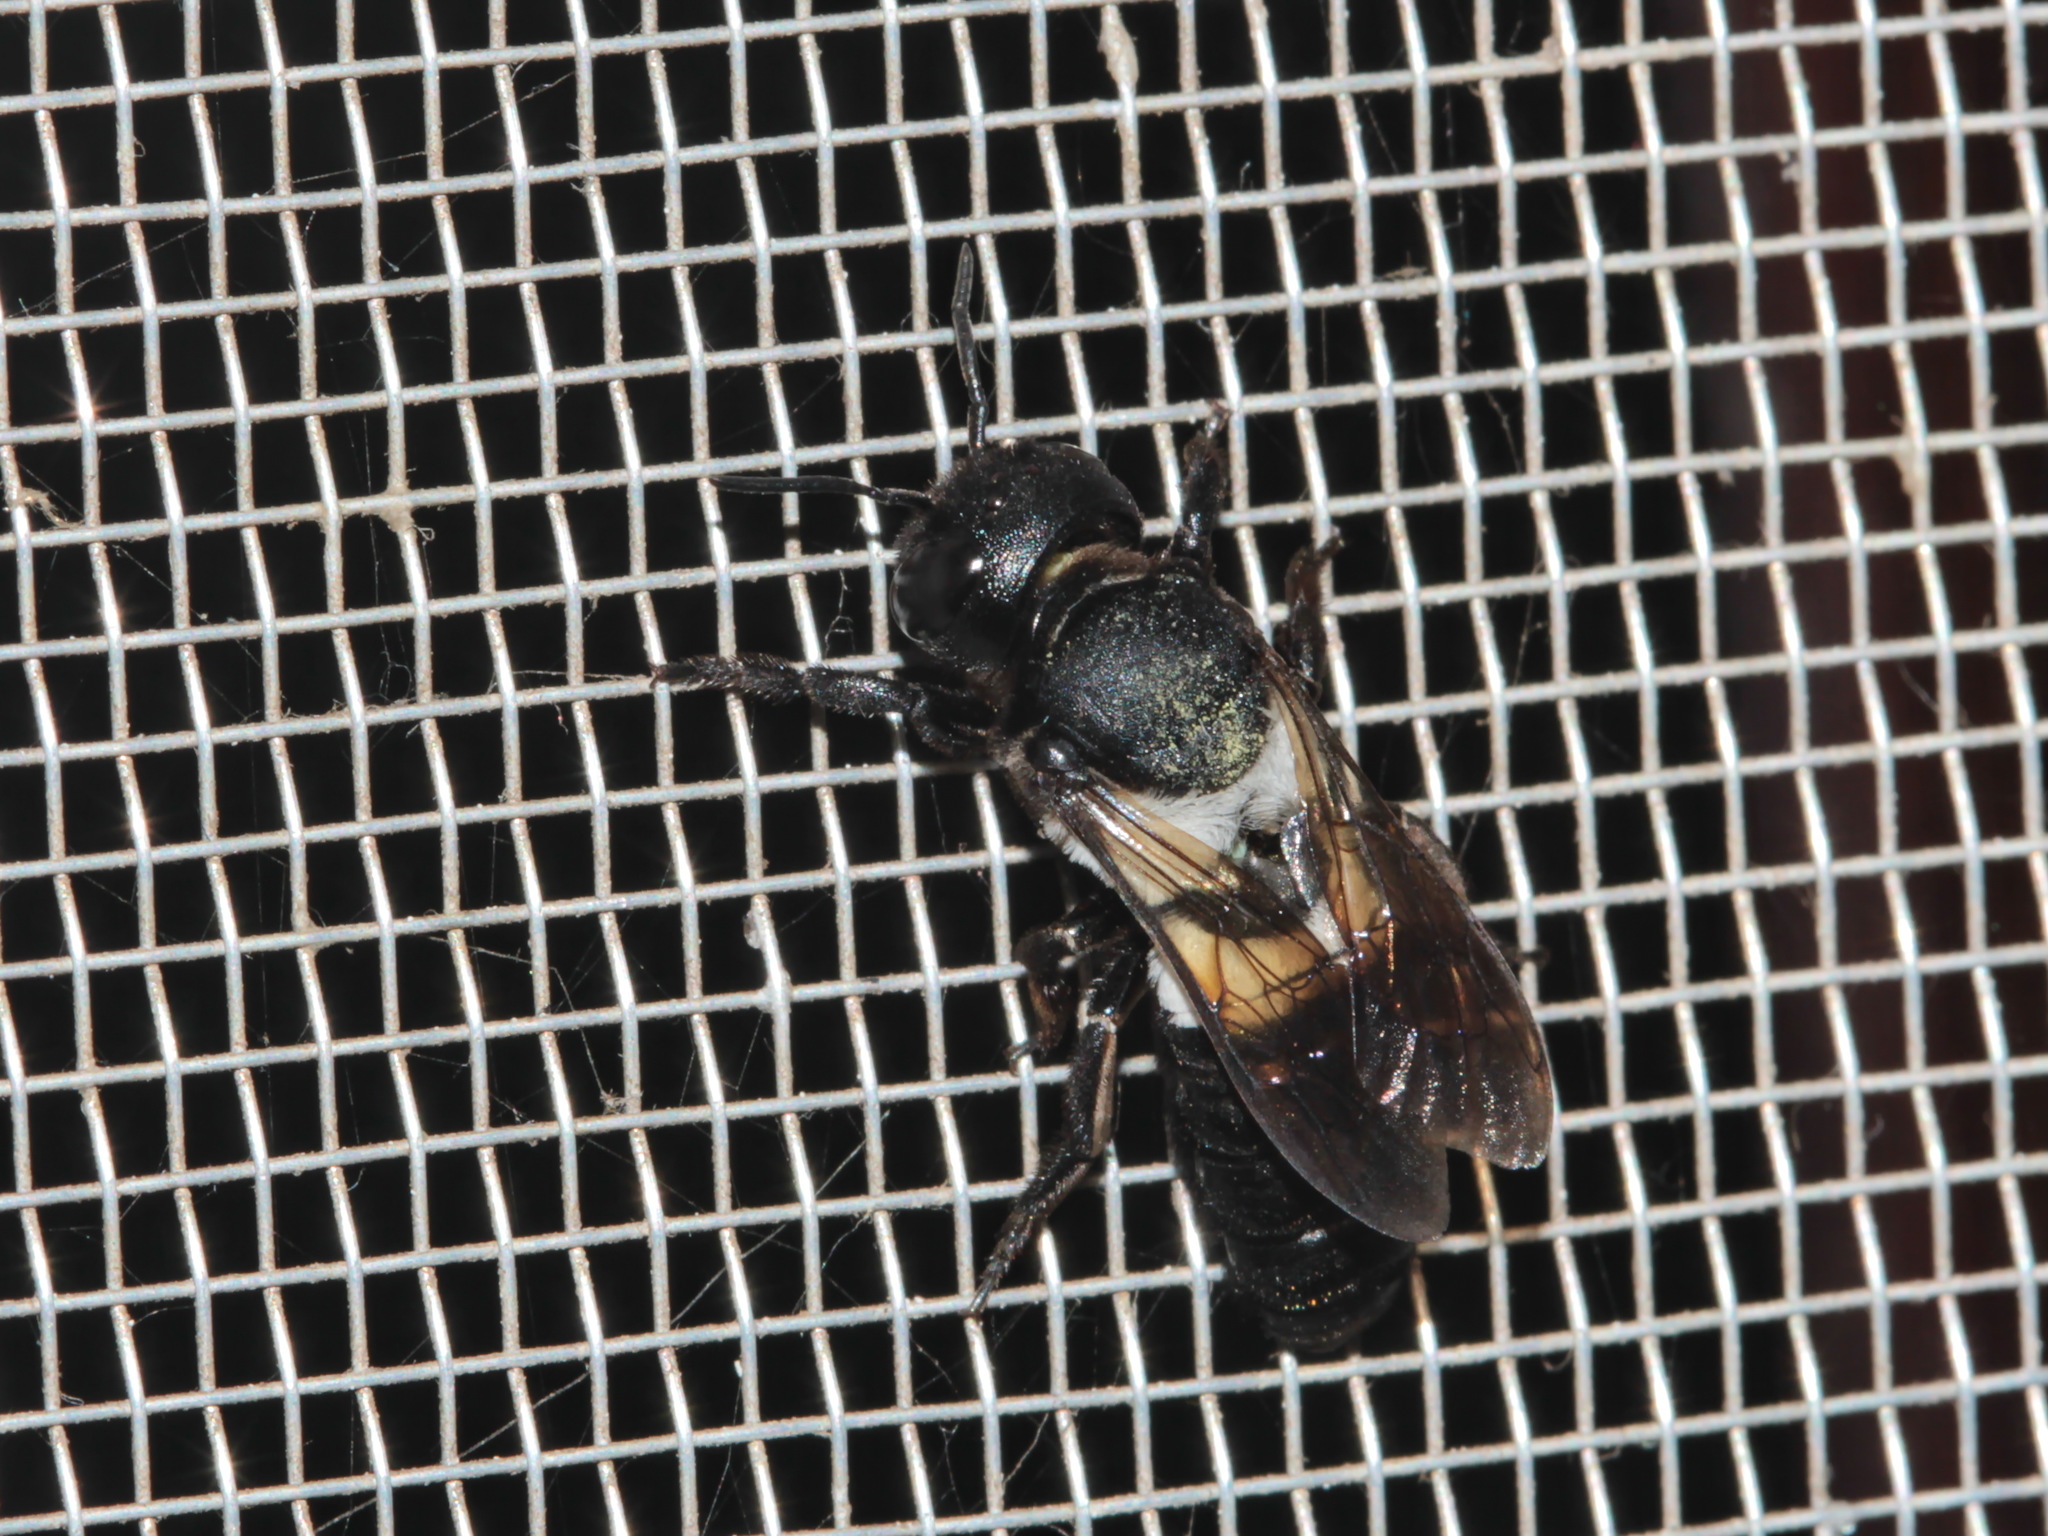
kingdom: Animalia
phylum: Arthropoda
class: Insecta
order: Hymenoptera
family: Megachilidae
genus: Megachile
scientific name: Megachile disjuncta
